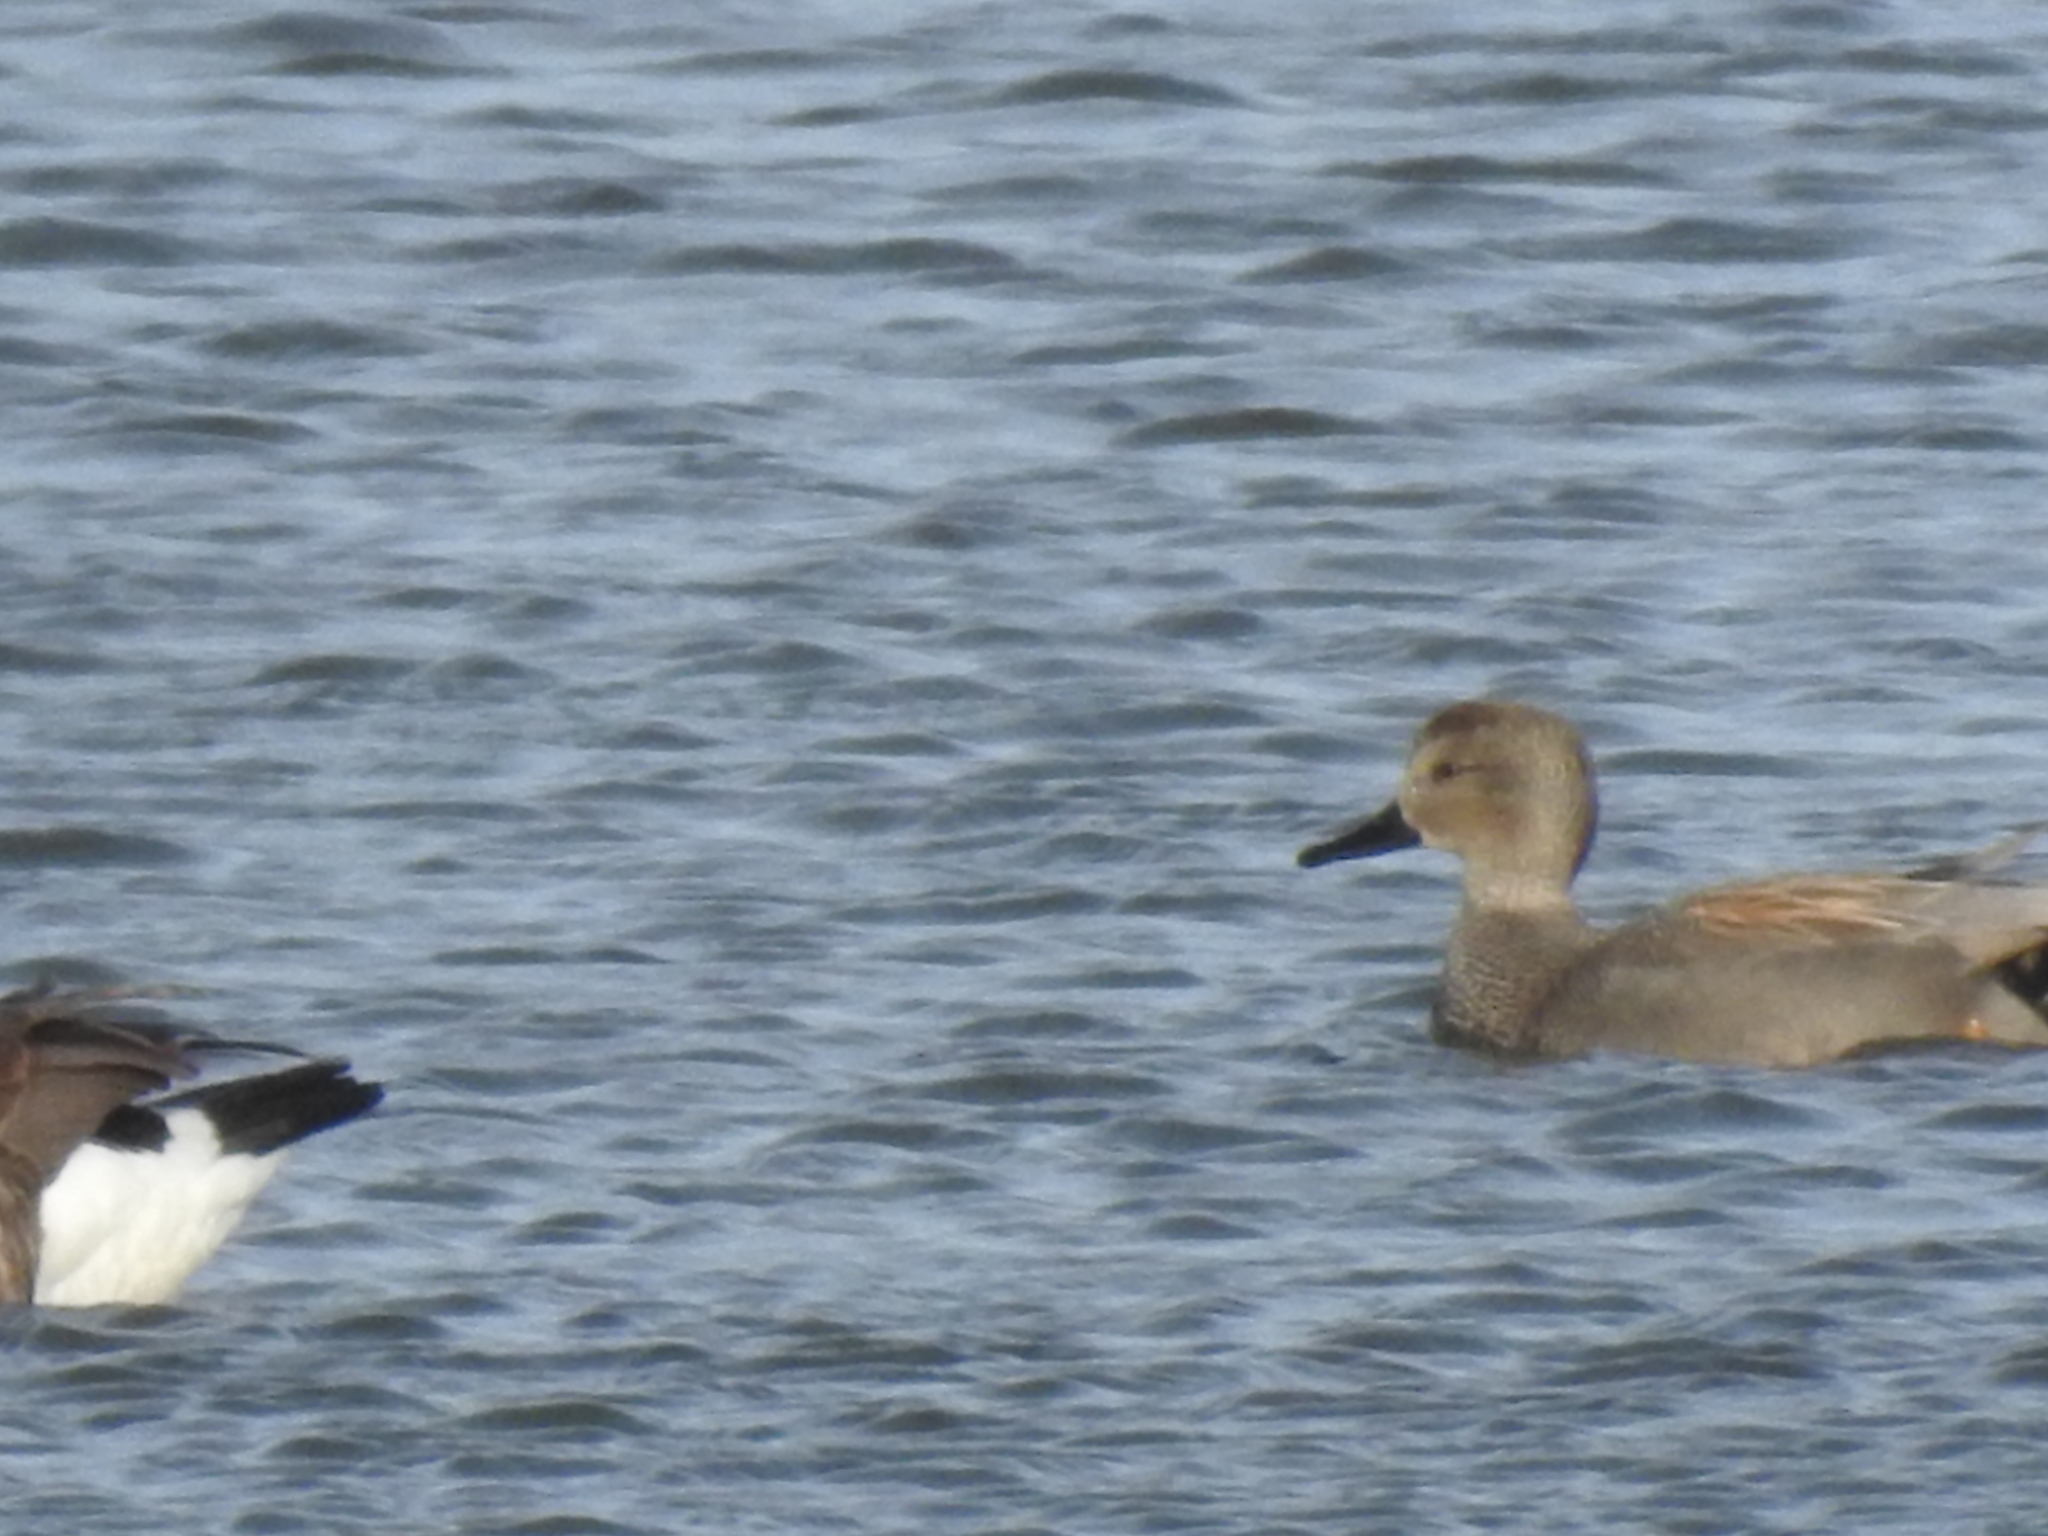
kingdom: Animalia
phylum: Chordata
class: Aves
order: Anseriformes
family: Anatidae
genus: Mareca
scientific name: Mareca strepera
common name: Gadwall
